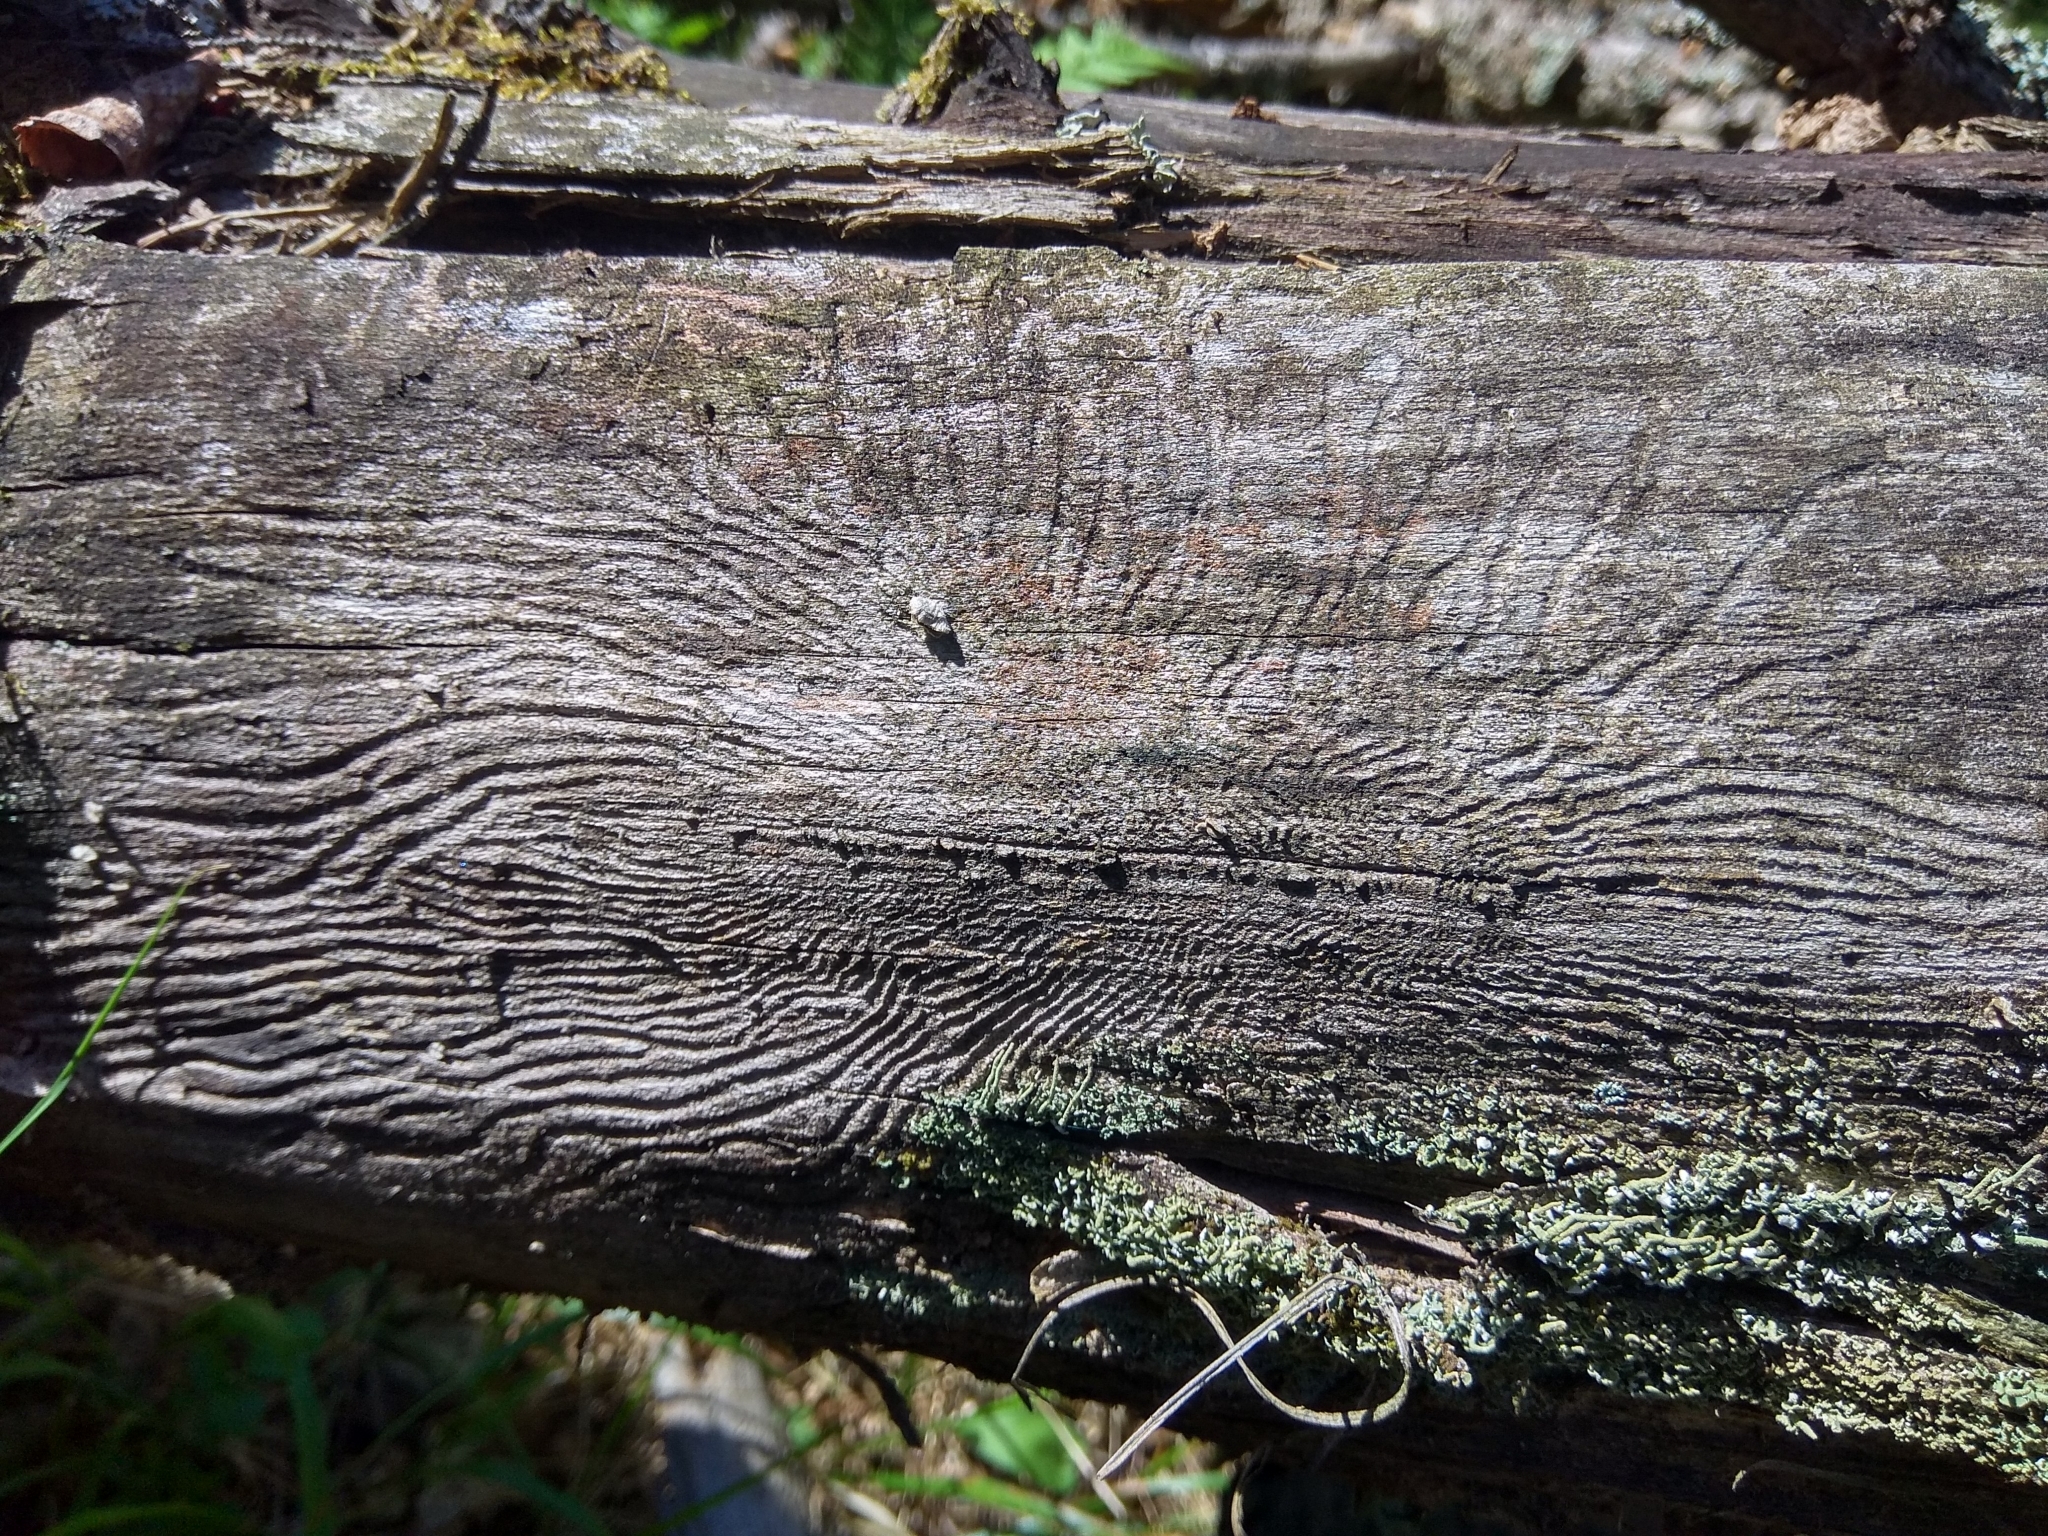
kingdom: Animalia
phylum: Arthropoda
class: Insecta
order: Coleoptera
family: Curculionidae
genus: Scolytus
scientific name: Scolytus ratzeburgii
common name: Birch bark beetle
